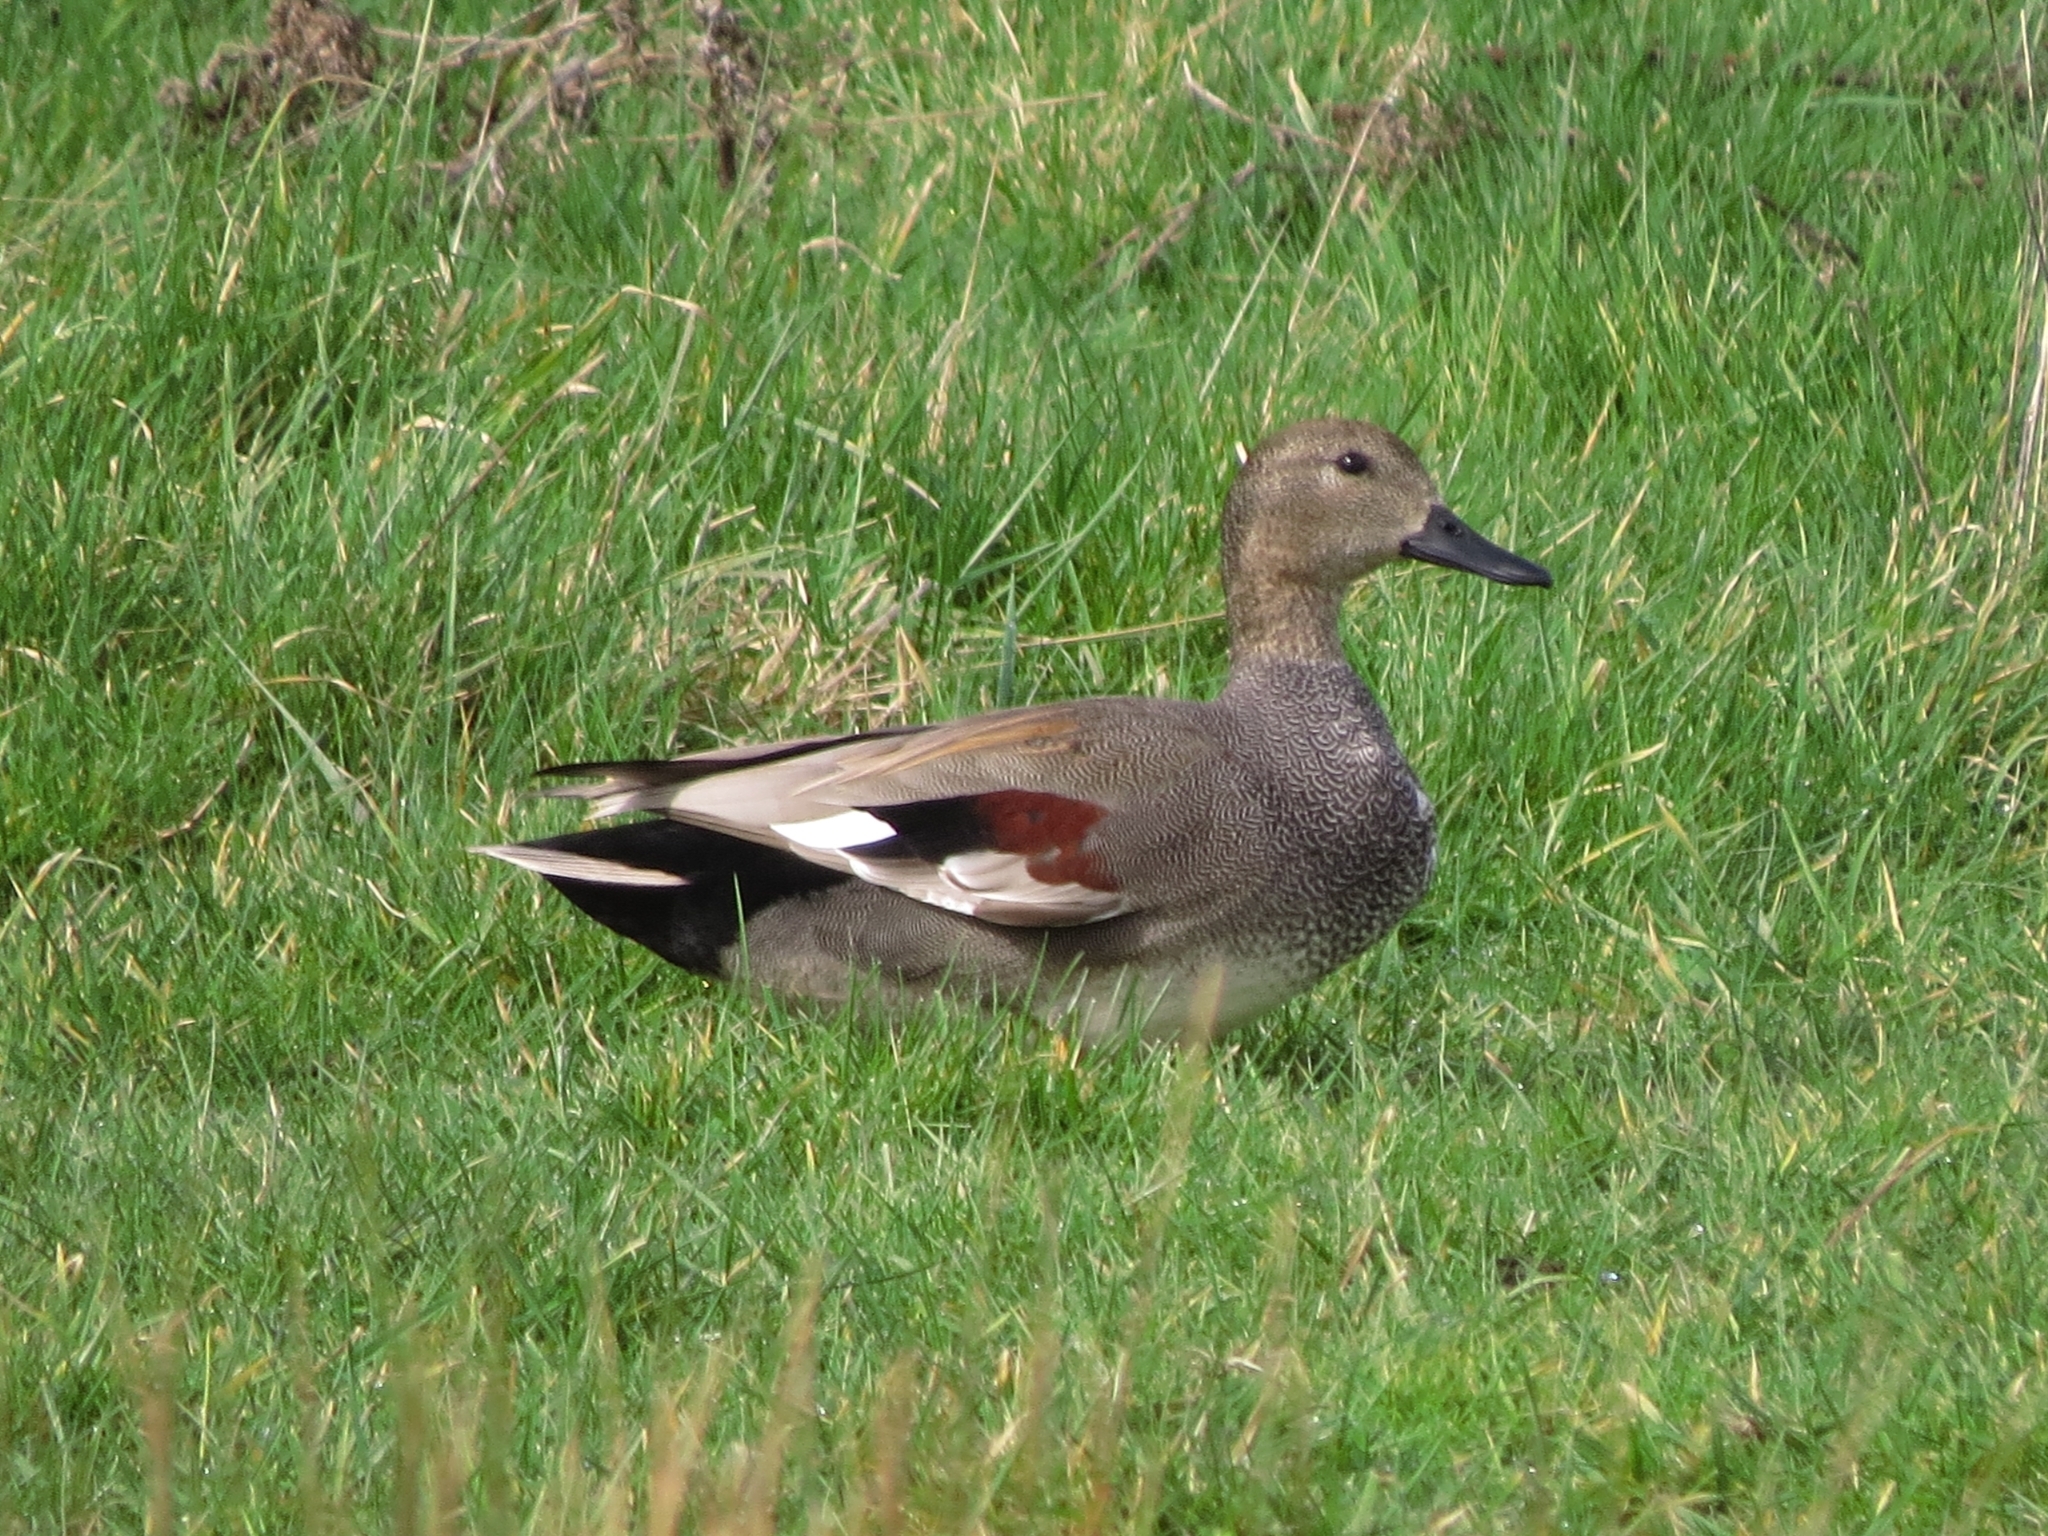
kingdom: Animalia
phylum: Chordata
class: Aves
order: Anseriformes
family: Anatidae
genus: Mareca
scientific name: Mareca strepera
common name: Gadwall
